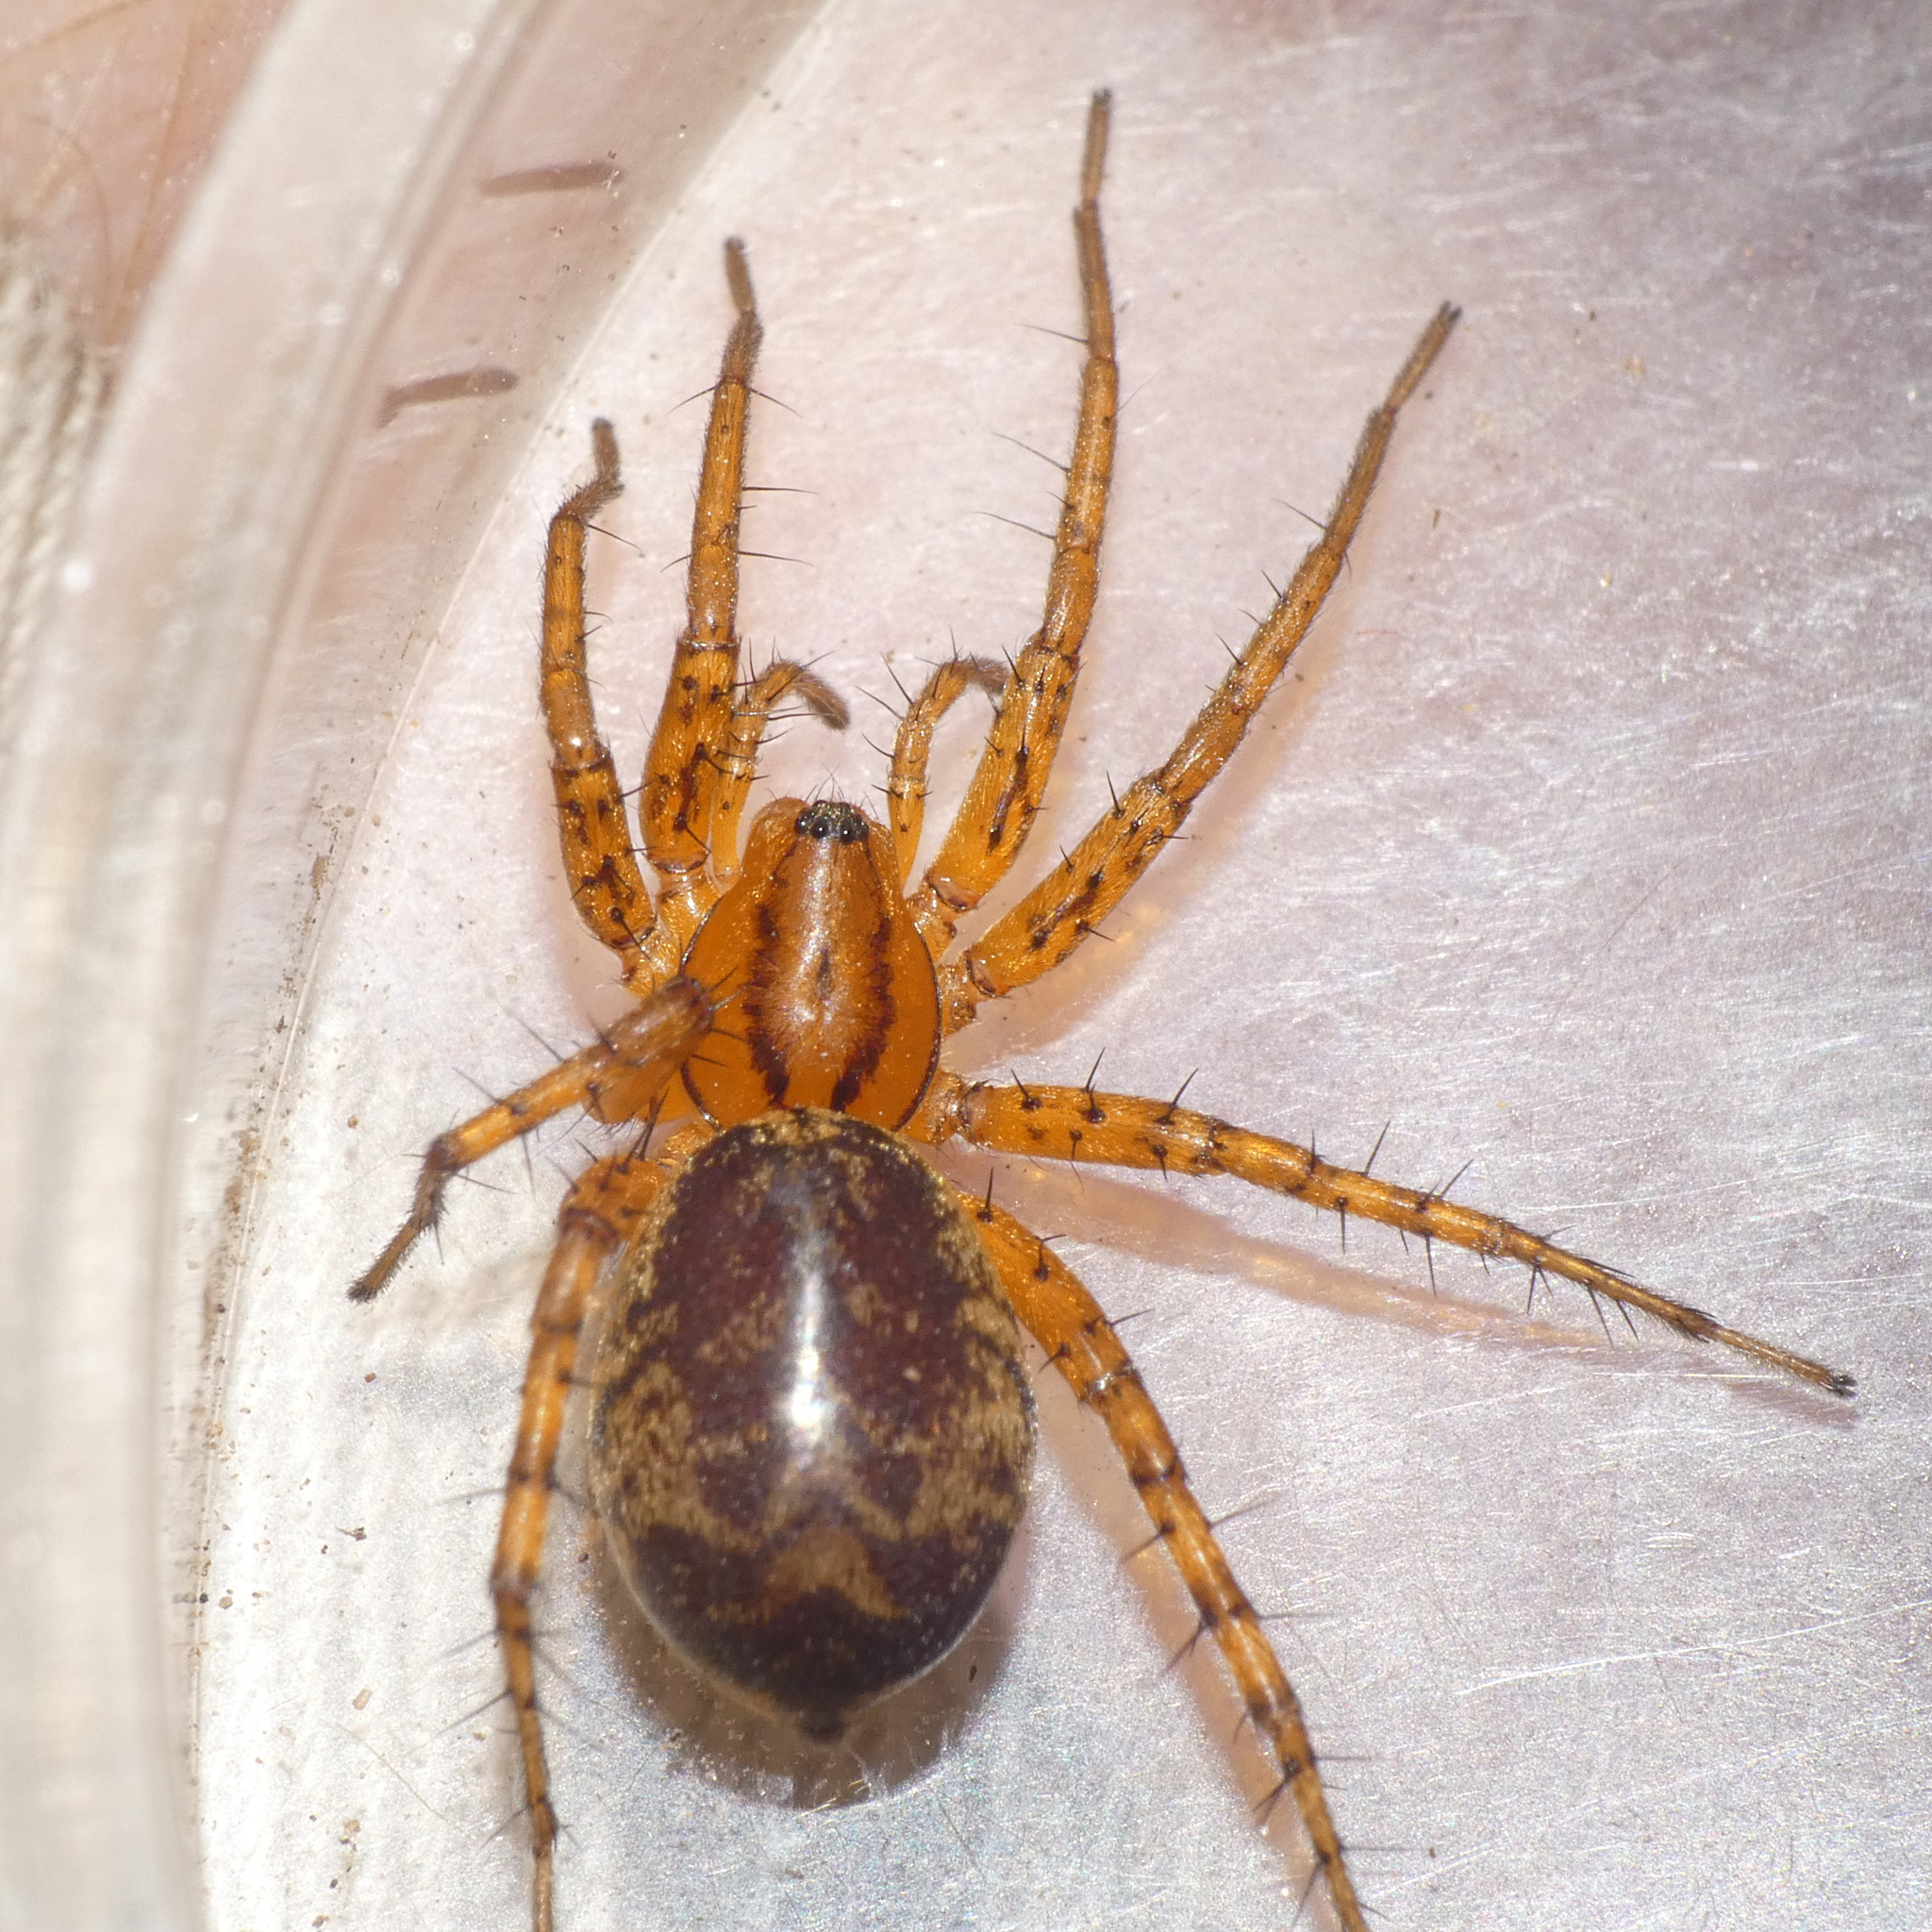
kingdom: Animalia
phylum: Arthropoda
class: Arachnida
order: Araneae
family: Corinnidae
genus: Copa
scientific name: Copa flavoplumosa
